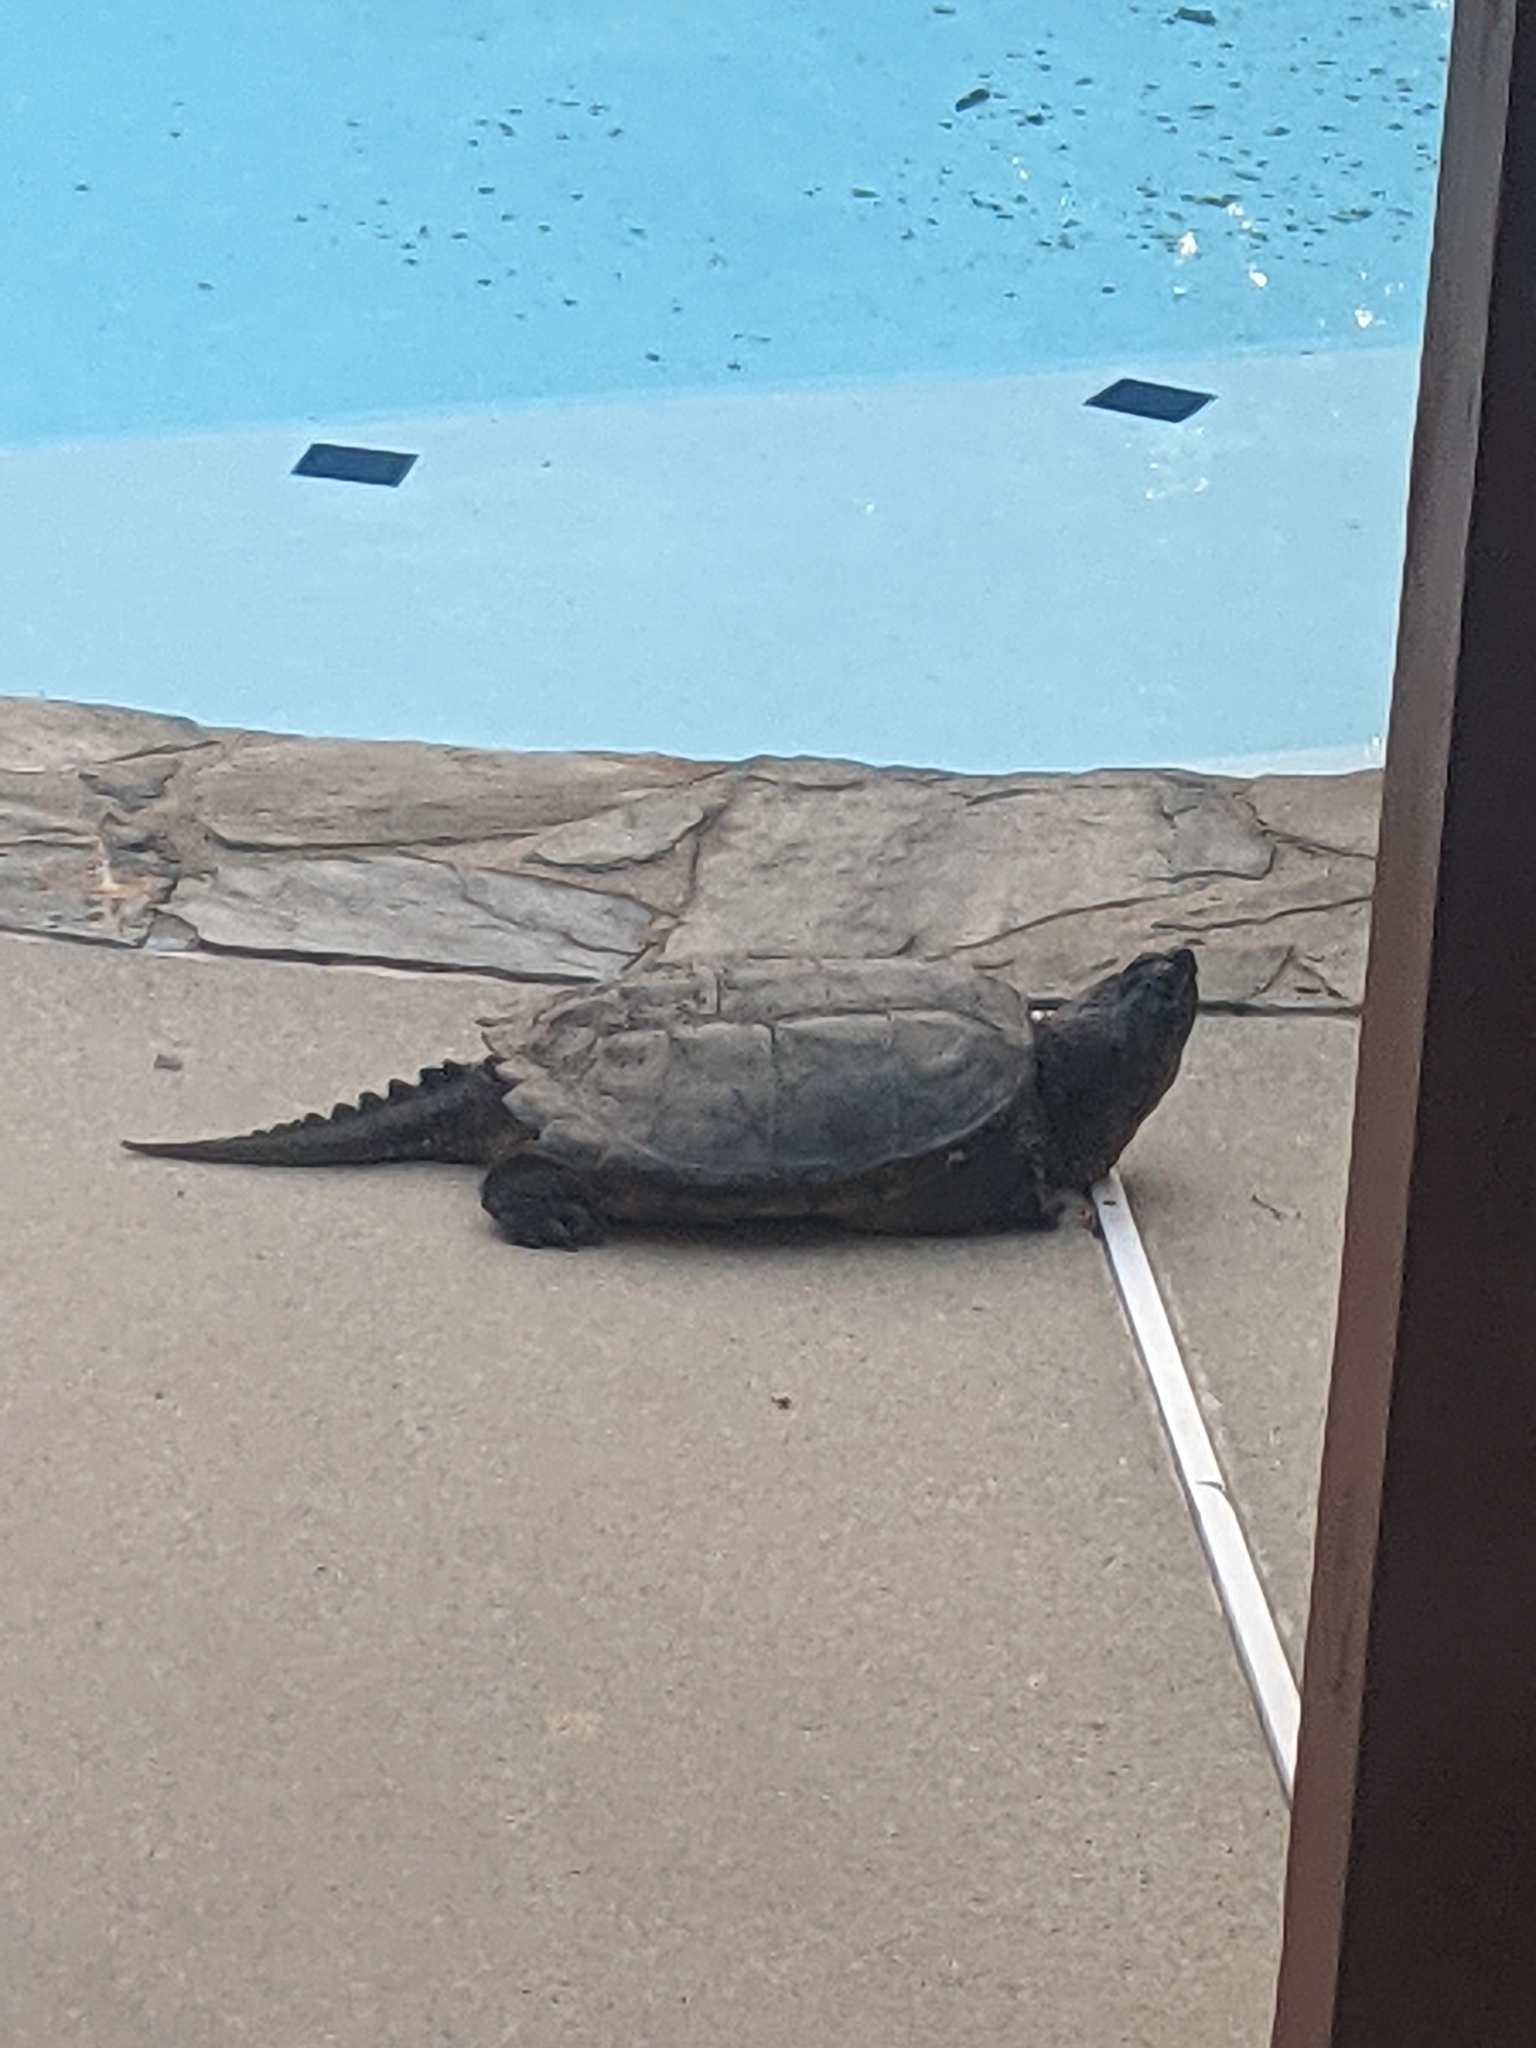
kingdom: Animalia
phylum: Chordata
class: Testudines
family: Chelydridae
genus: Chelydra
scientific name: Chelydra serpentina
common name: Common snapping turtle
